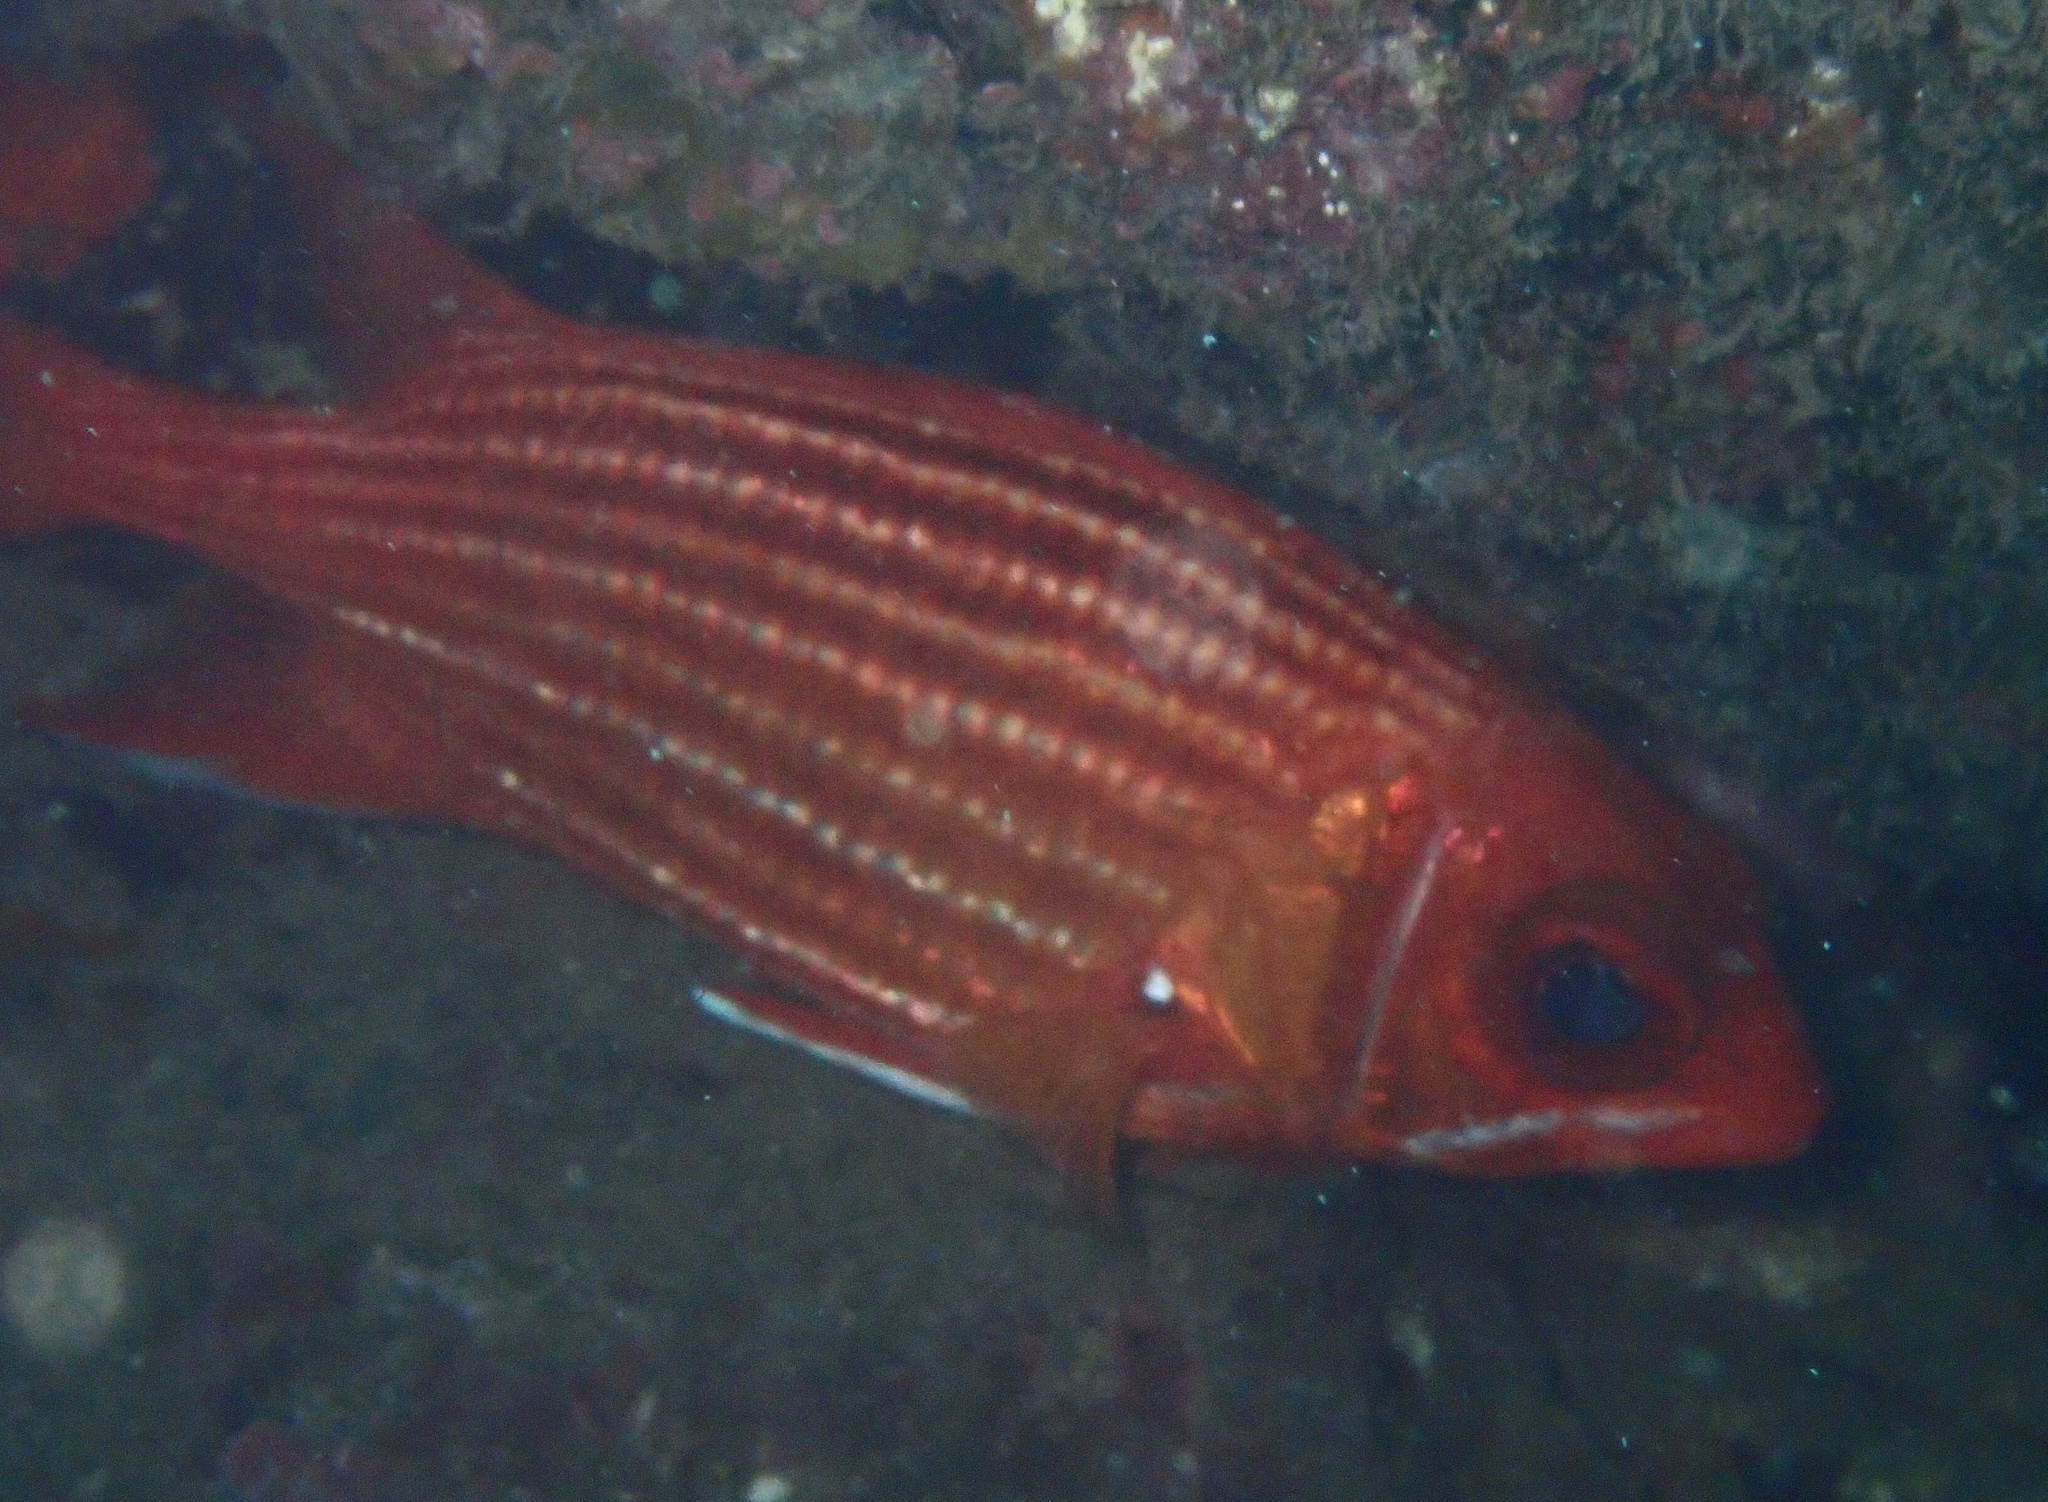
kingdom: Animalia
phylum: Chordata
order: Beryciformes
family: Holocentridae
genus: Sargocentron
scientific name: Sargocentron hastatum
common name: Red soldierfish
